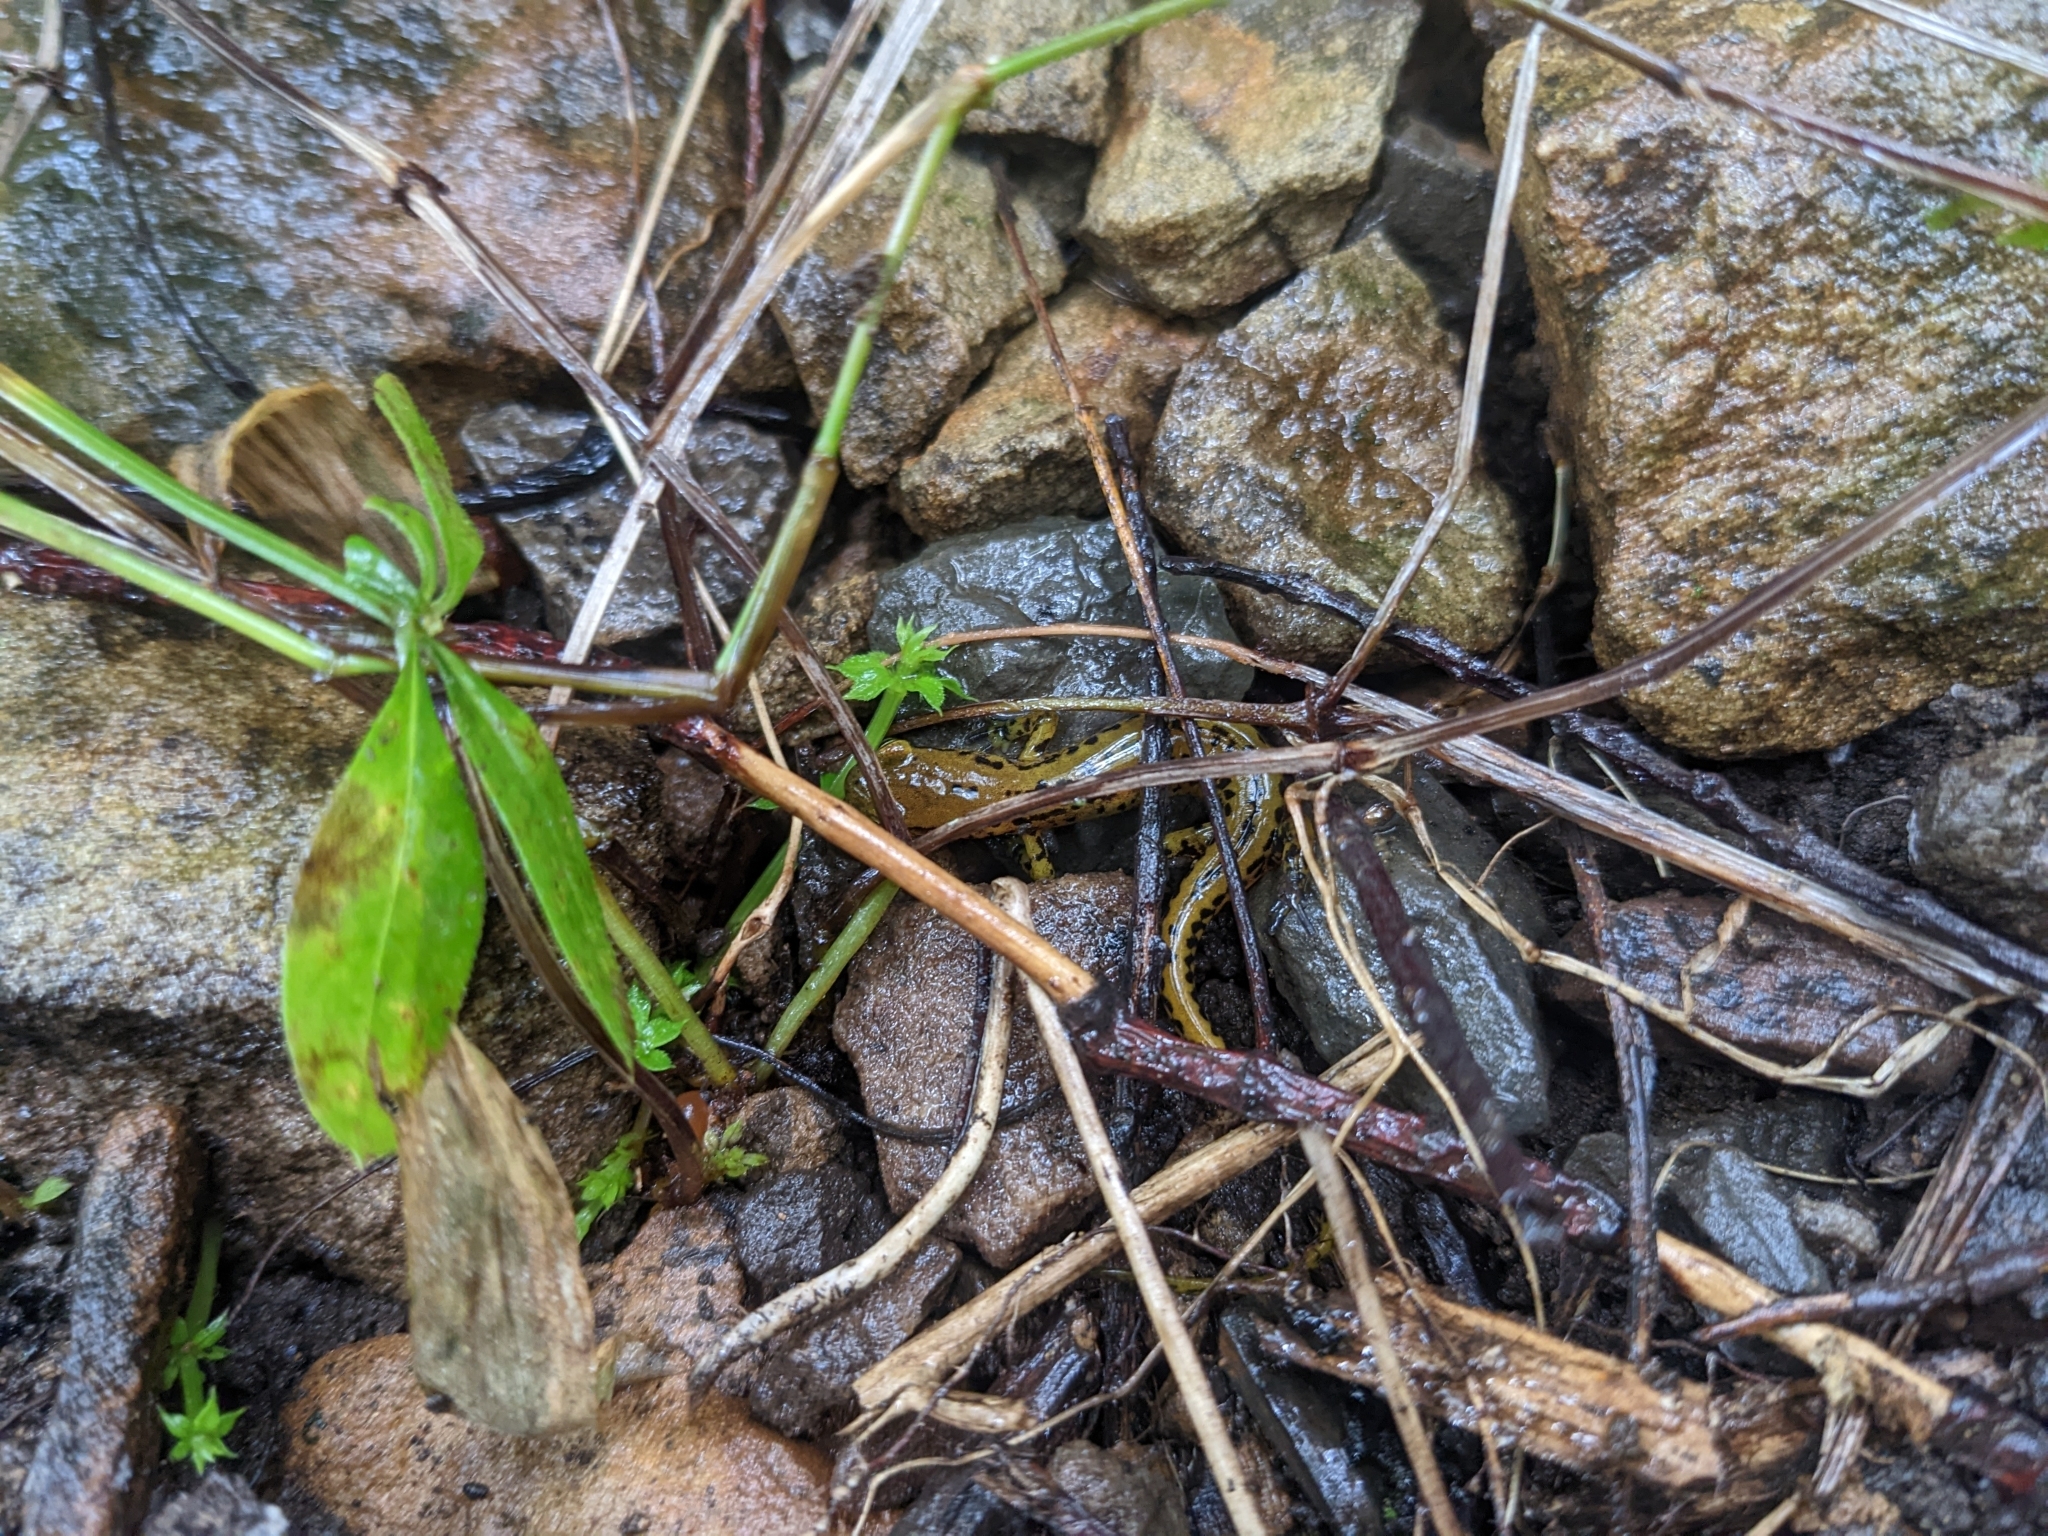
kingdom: Animalia
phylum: Chordata
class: Amphibia
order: Caudata
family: Plethodontidae
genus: Eurycea
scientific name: Eurycea longicauda
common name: Long-tailed salamander
